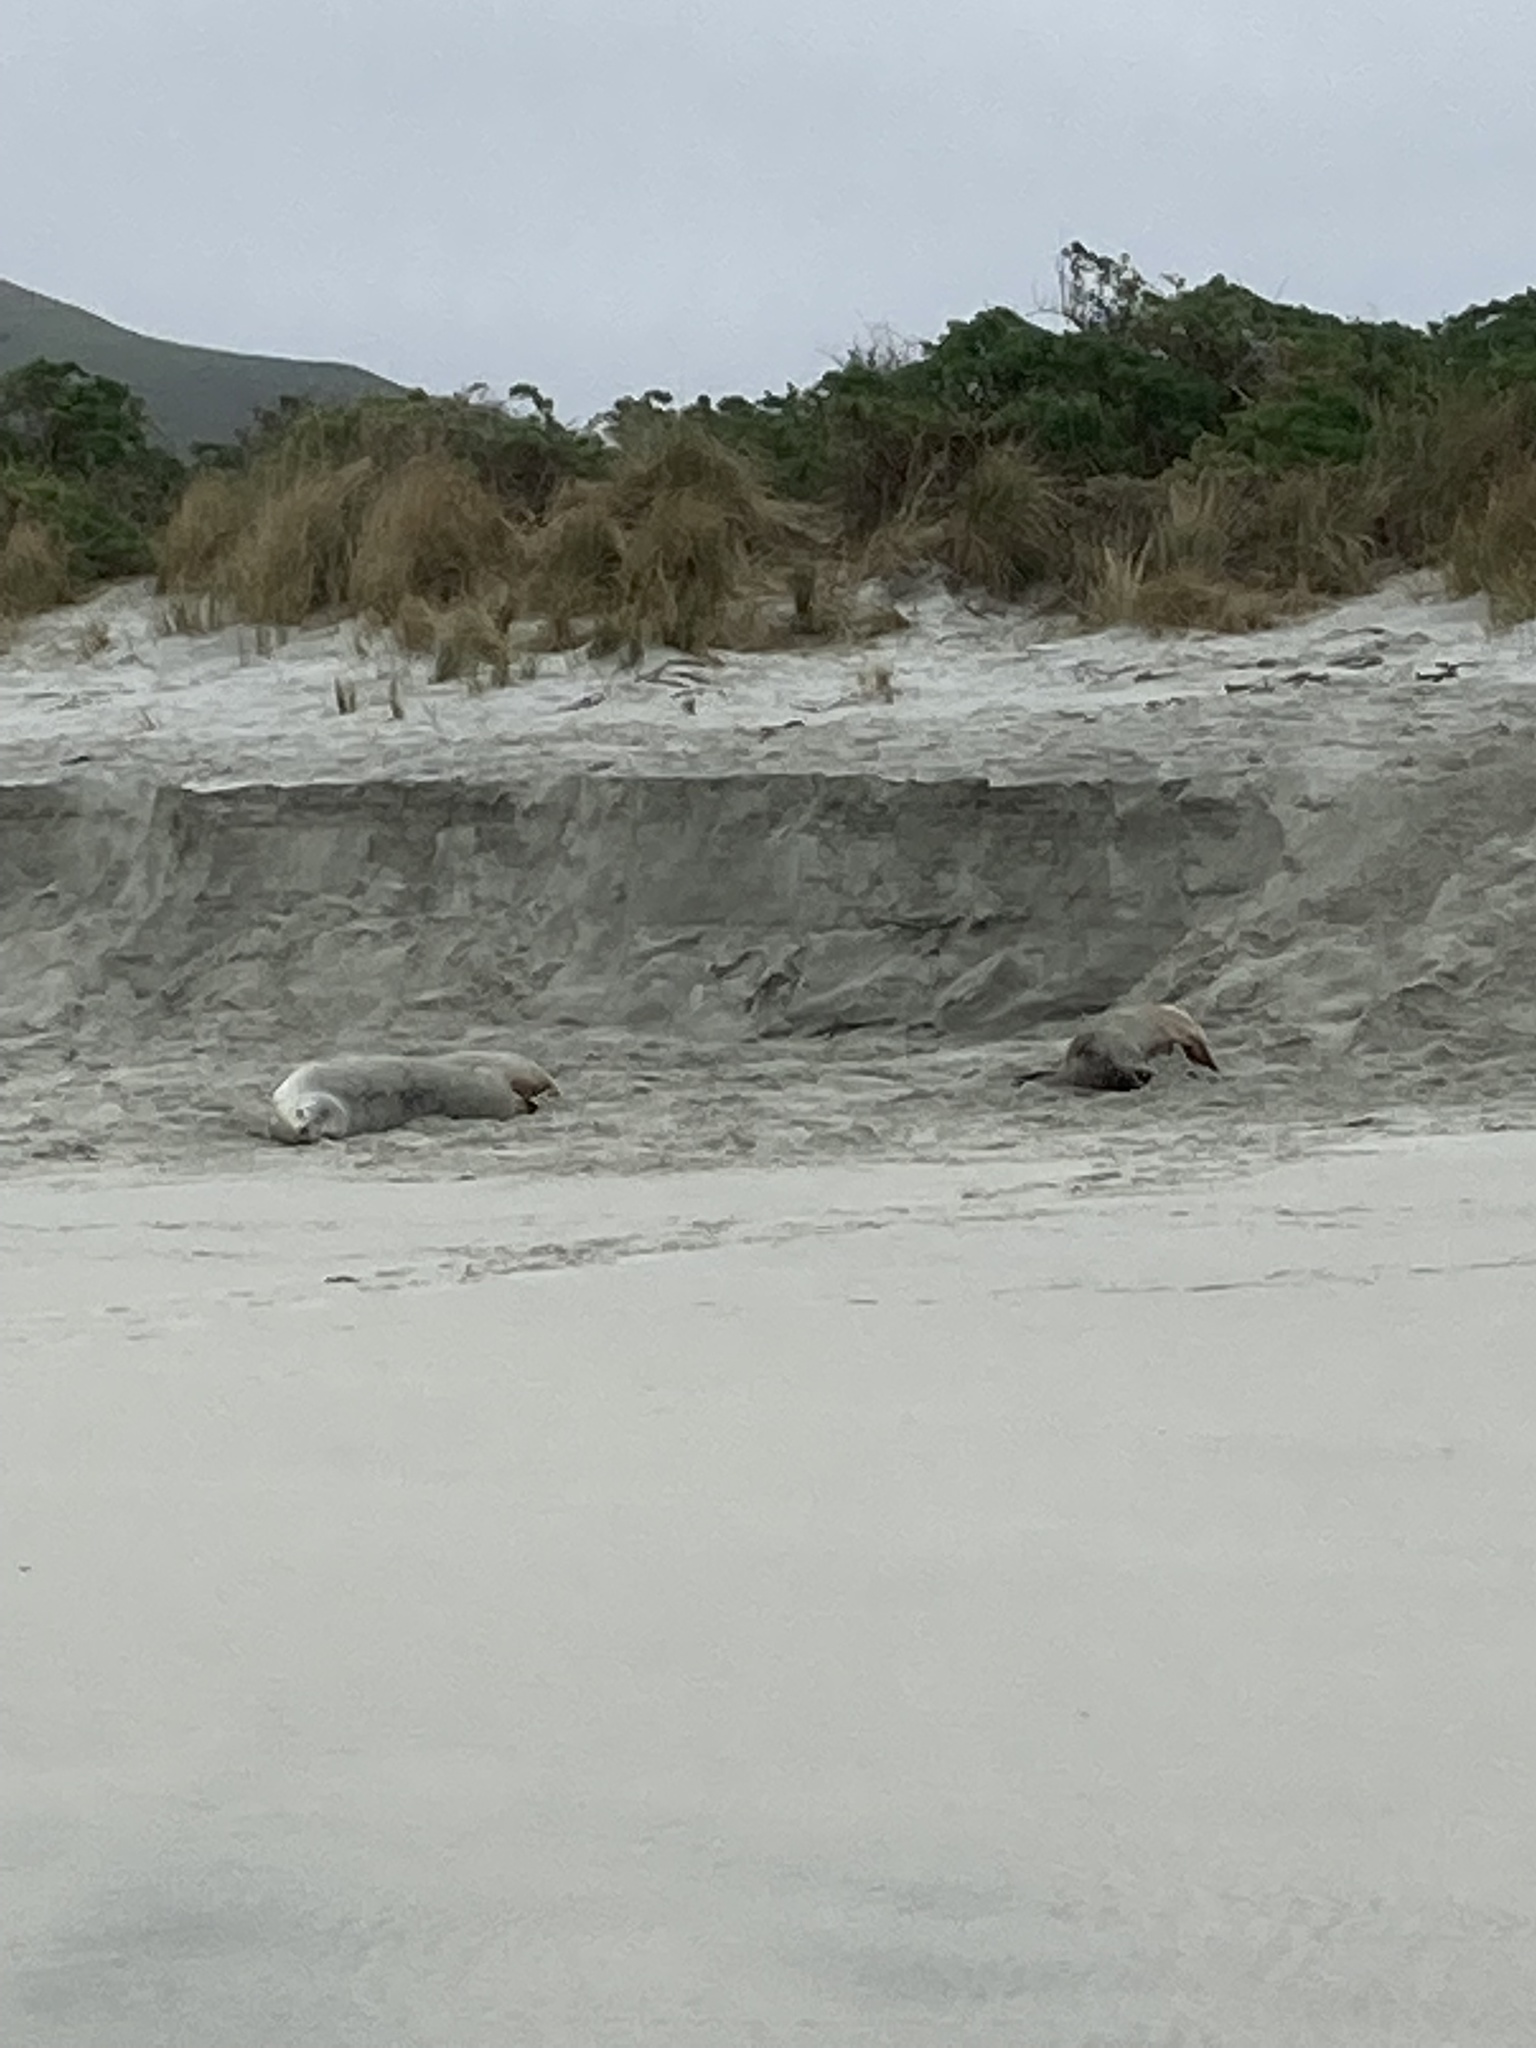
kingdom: Animalia
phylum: Chordata
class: Mammalia
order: Carnivora
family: Otariidae
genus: Phocarctos
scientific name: Phocarctos hookeri
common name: New zealand sea lion
